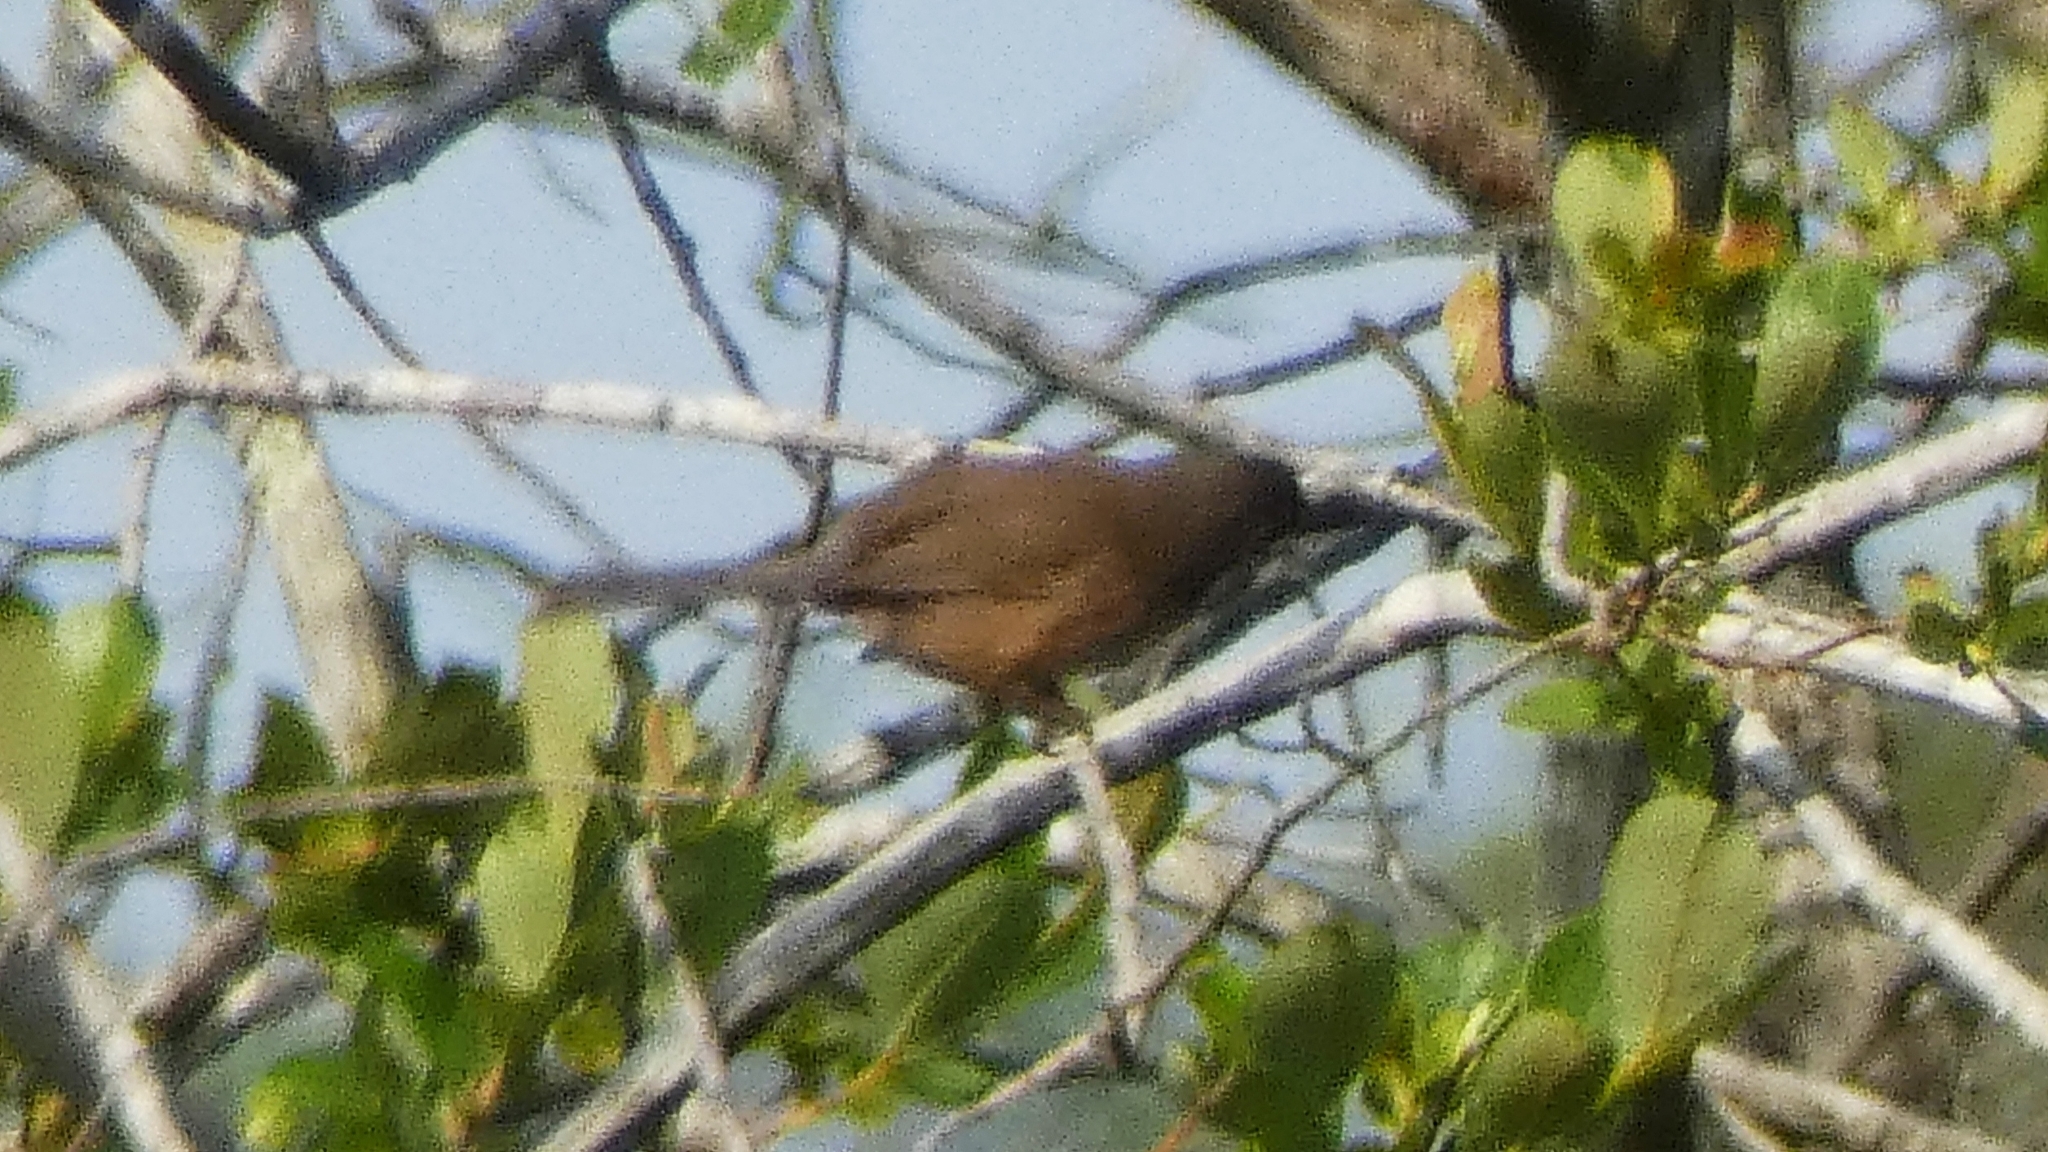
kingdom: Animalia
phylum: Chordata
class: Aves
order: Passeriformes
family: Sylviidae
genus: Sylvia
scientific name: Sylvia undata
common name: Dartford warbler
